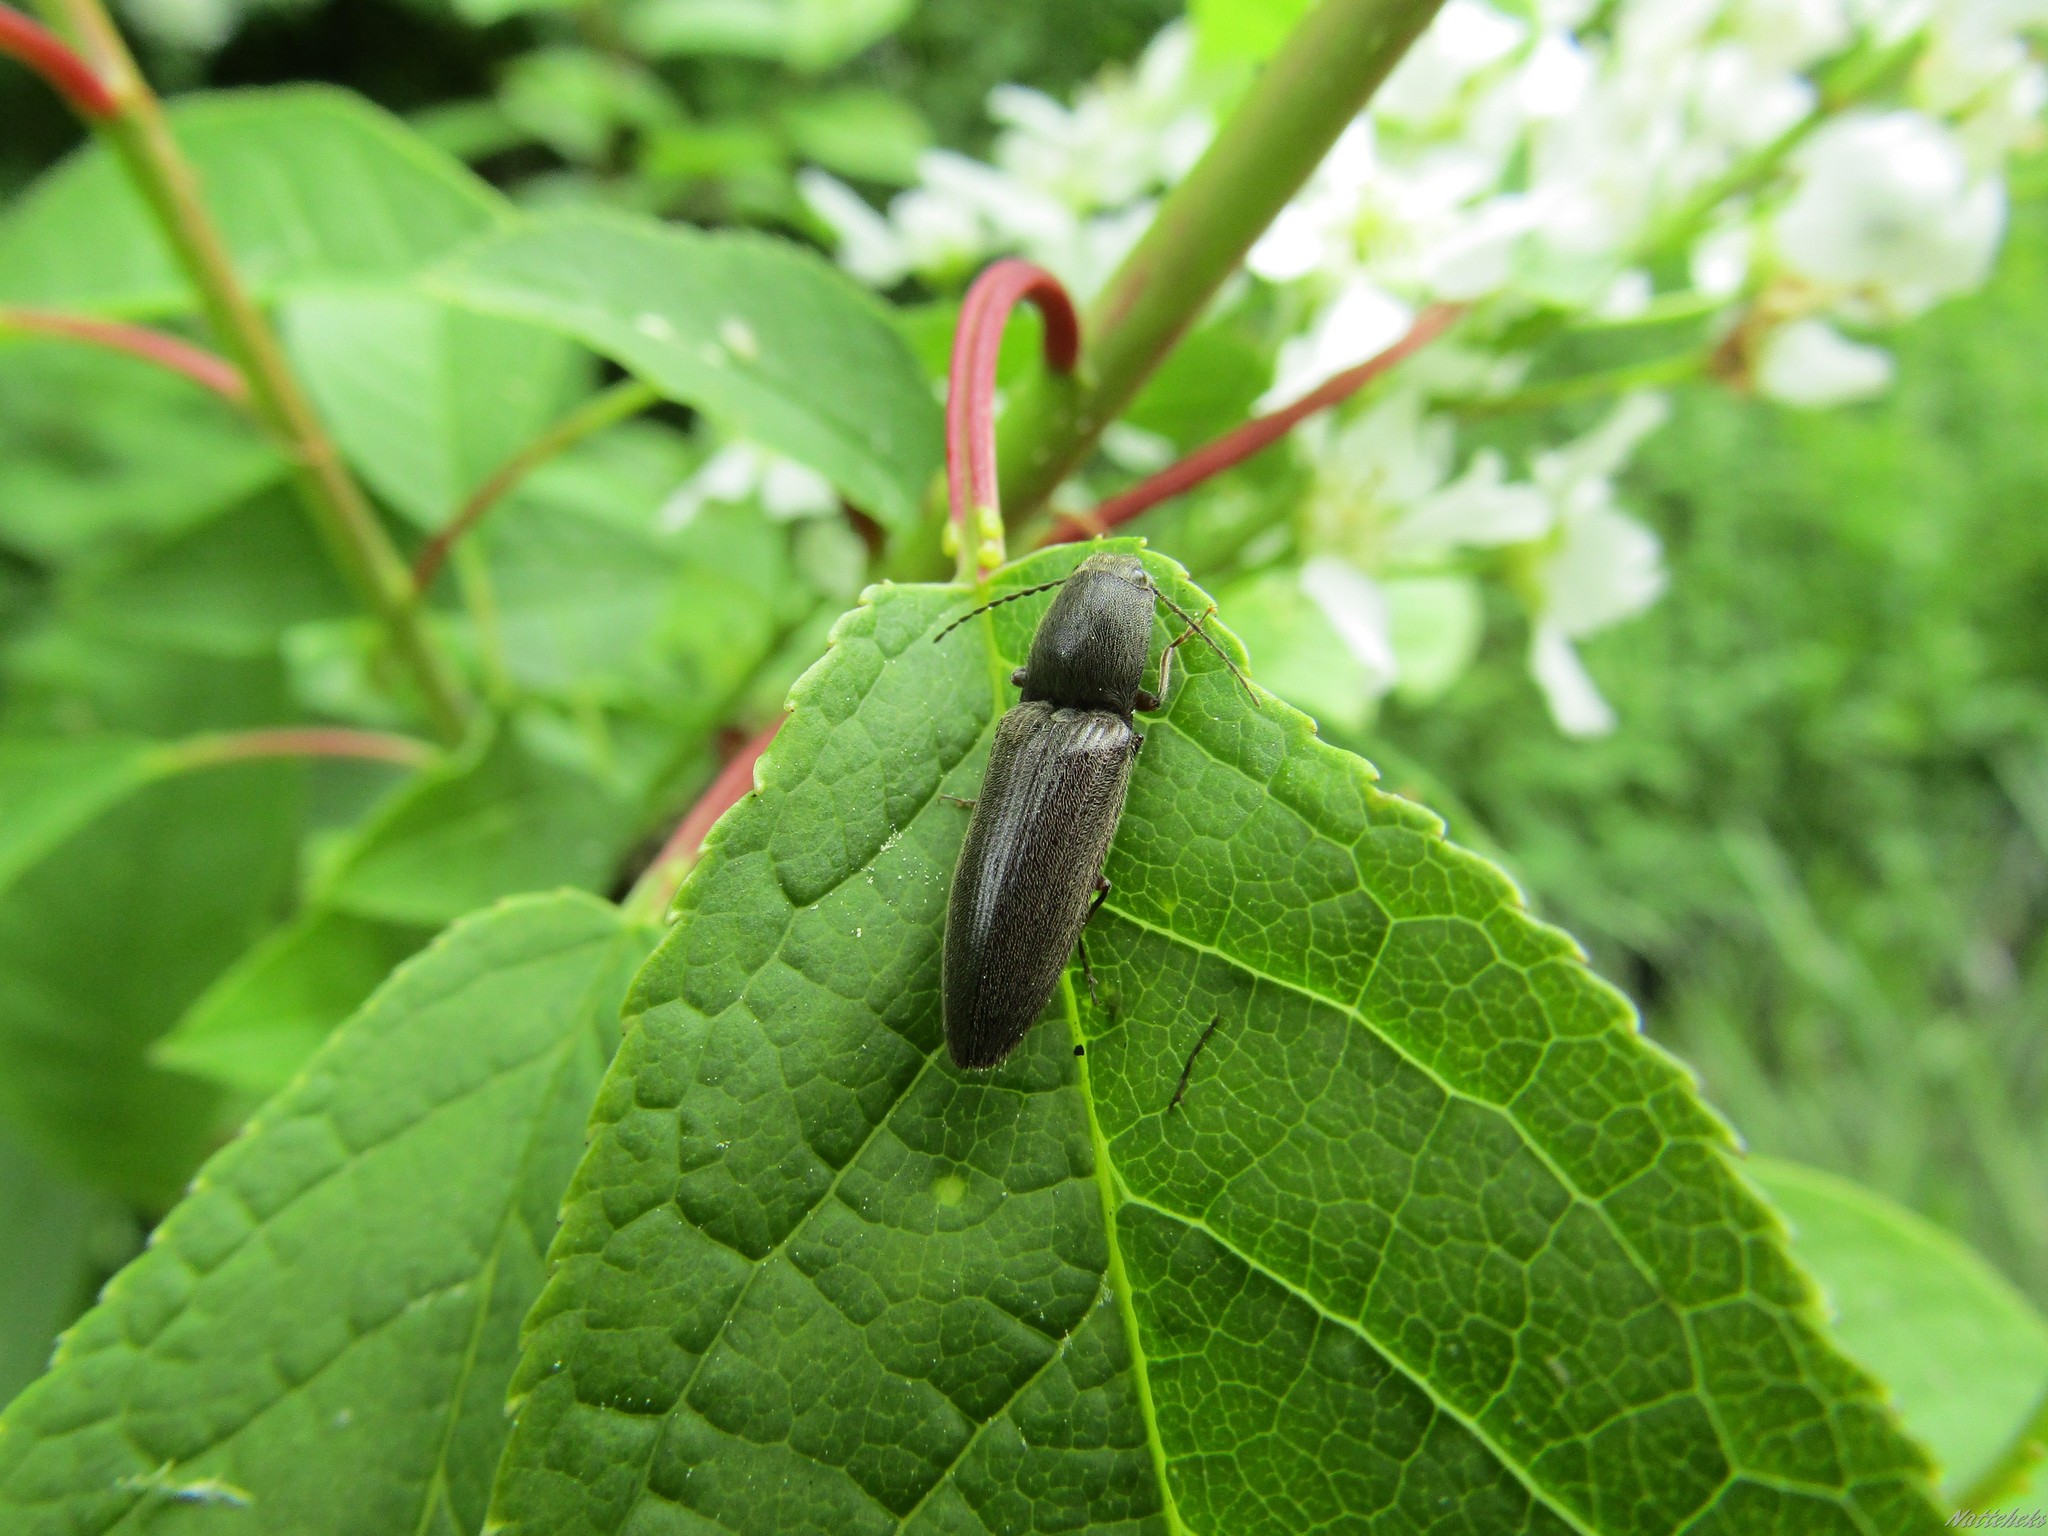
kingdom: Animalia
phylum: Arthropoda
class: Insecta
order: Coleoptera
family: Elateridae
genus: Athous
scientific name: Athous haemorrhoidalis
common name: Red-brown click beetle
